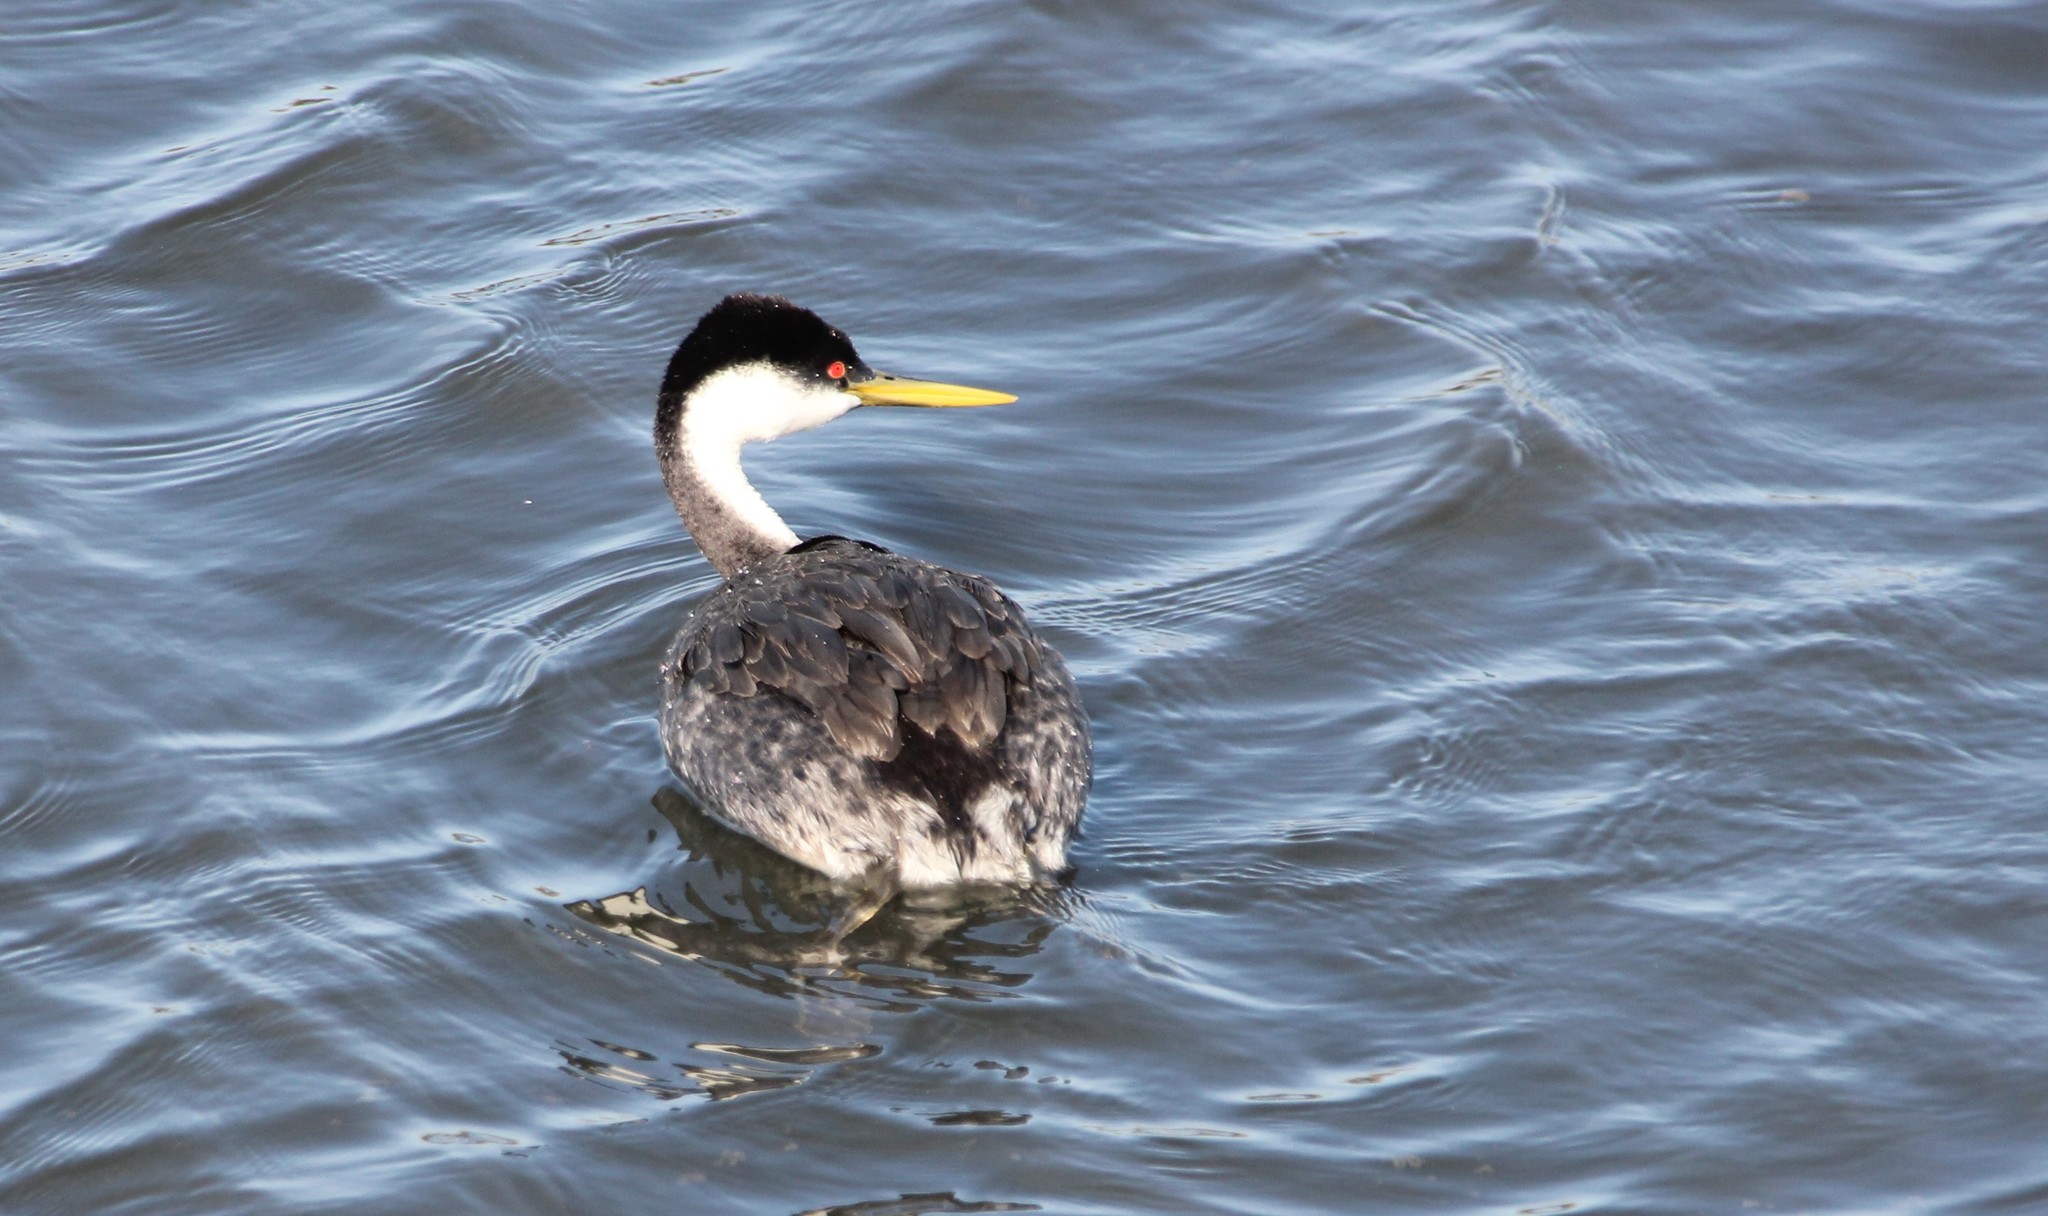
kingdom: Animalia
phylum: Chordata
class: Aves
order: Podicipediformes
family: Podicipedidae
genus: Aechmophorus
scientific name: Aechmophorus occidentalis
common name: Western grebe
